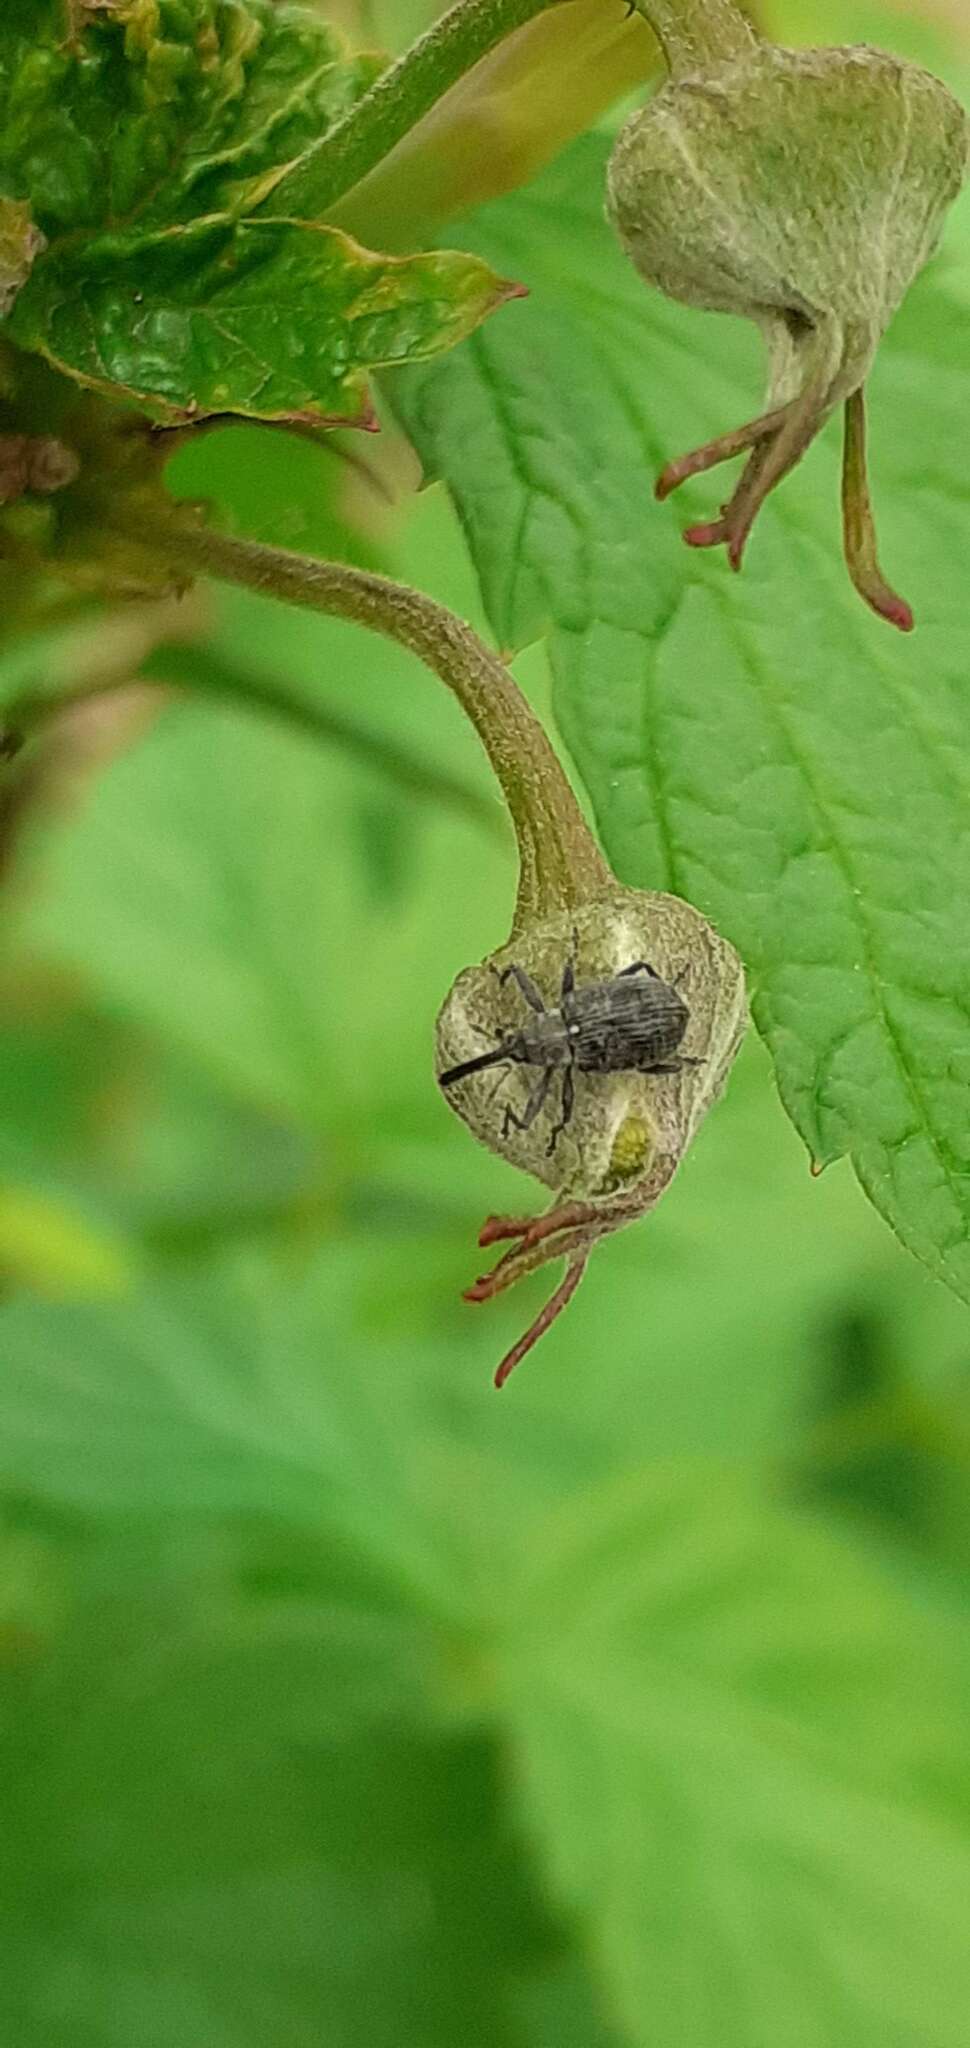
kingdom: Animalia
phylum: Arthropoda
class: Insecta
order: Coleoptera
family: Curculionidae
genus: Anthonomus
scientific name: Anthonomus rubi
